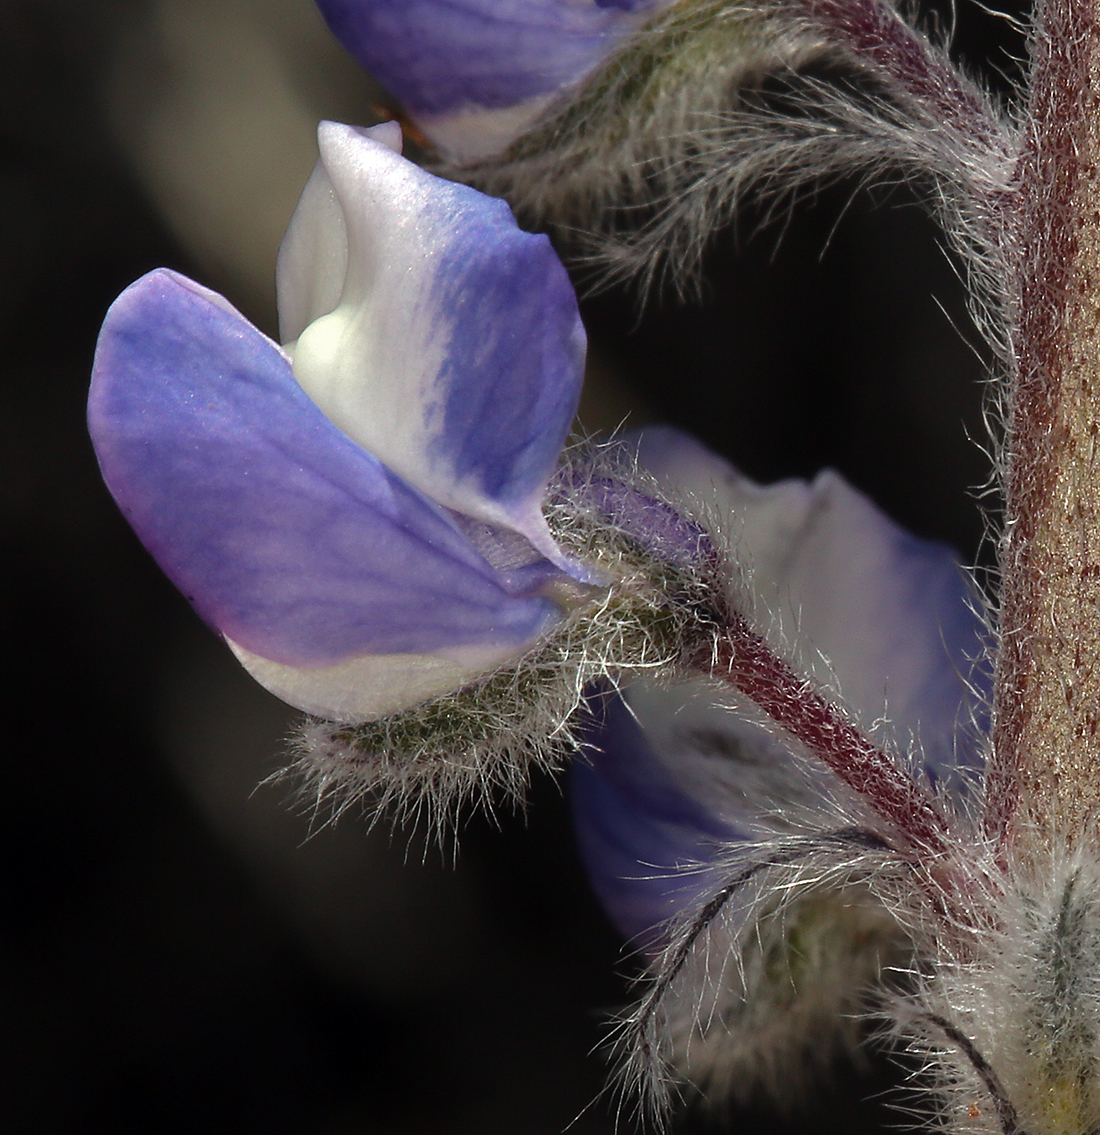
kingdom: Plantae
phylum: Tracheophyta
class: Magnoliopsida
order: Fabales
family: Fabaceae
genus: Lupinus
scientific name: Lupinus nevadensis
